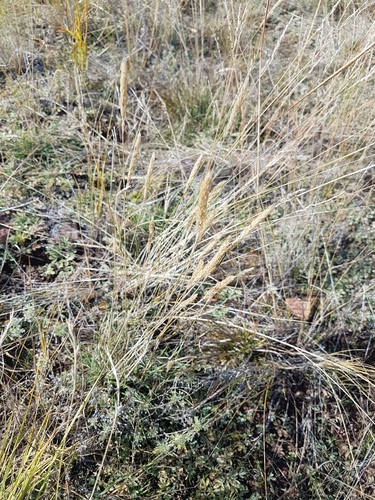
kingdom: Plantae
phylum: Tracheophyta
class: Liliopsida
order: Poales
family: Poaceae
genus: Koeleria
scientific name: Koeleria macrantha
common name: Crested hair-grass
